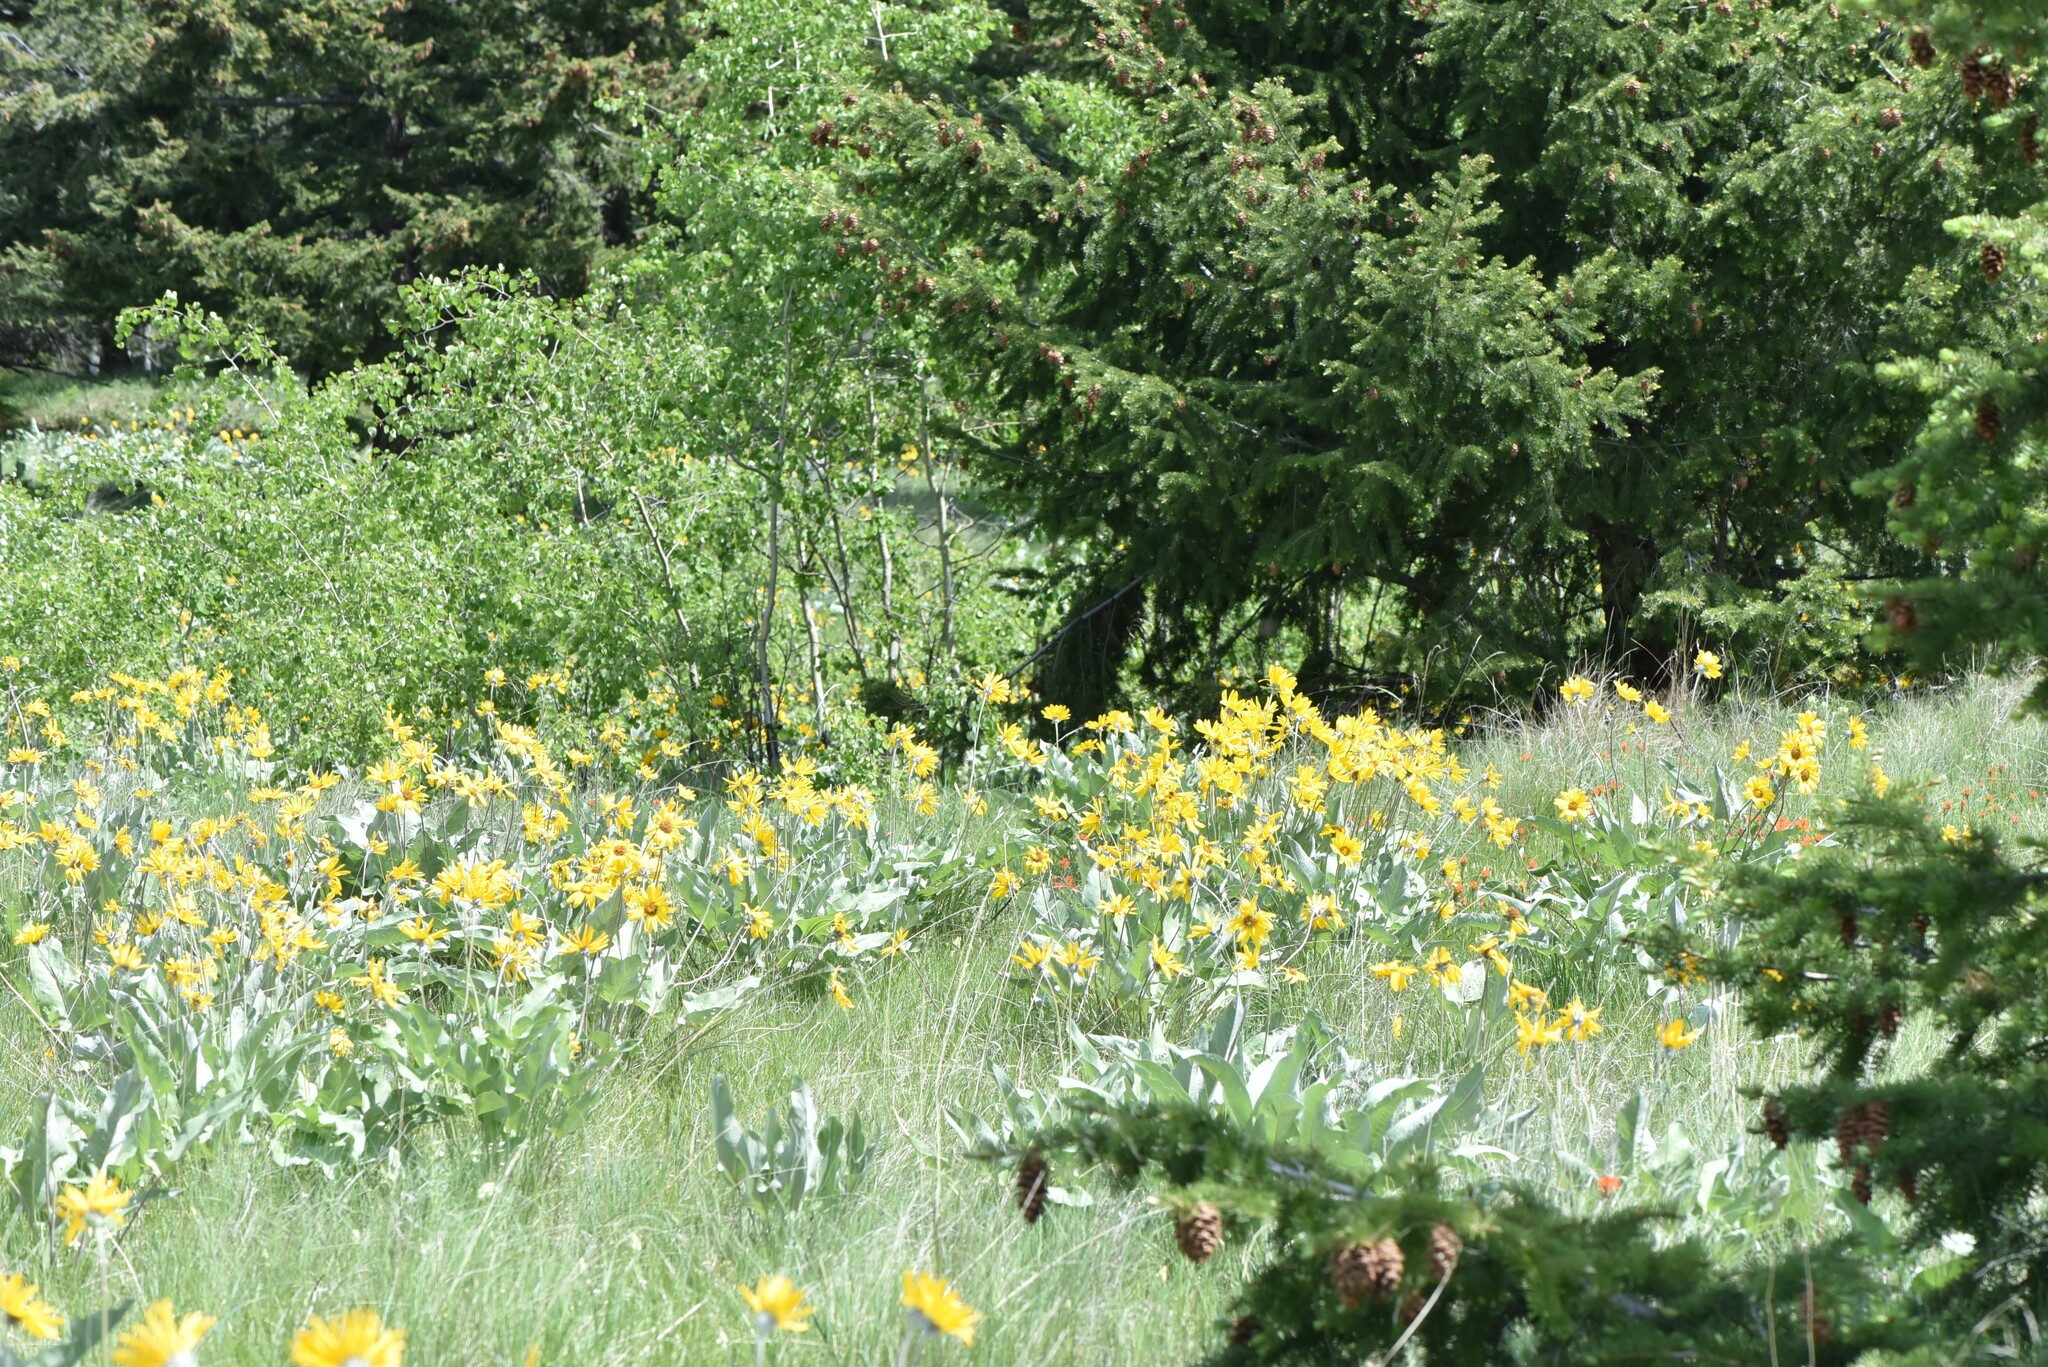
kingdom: Plantae
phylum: Tracheophyta
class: Magnoliopsida
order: Asterales
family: Asteraceae
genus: Wyethia
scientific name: Wyethia sagittata
